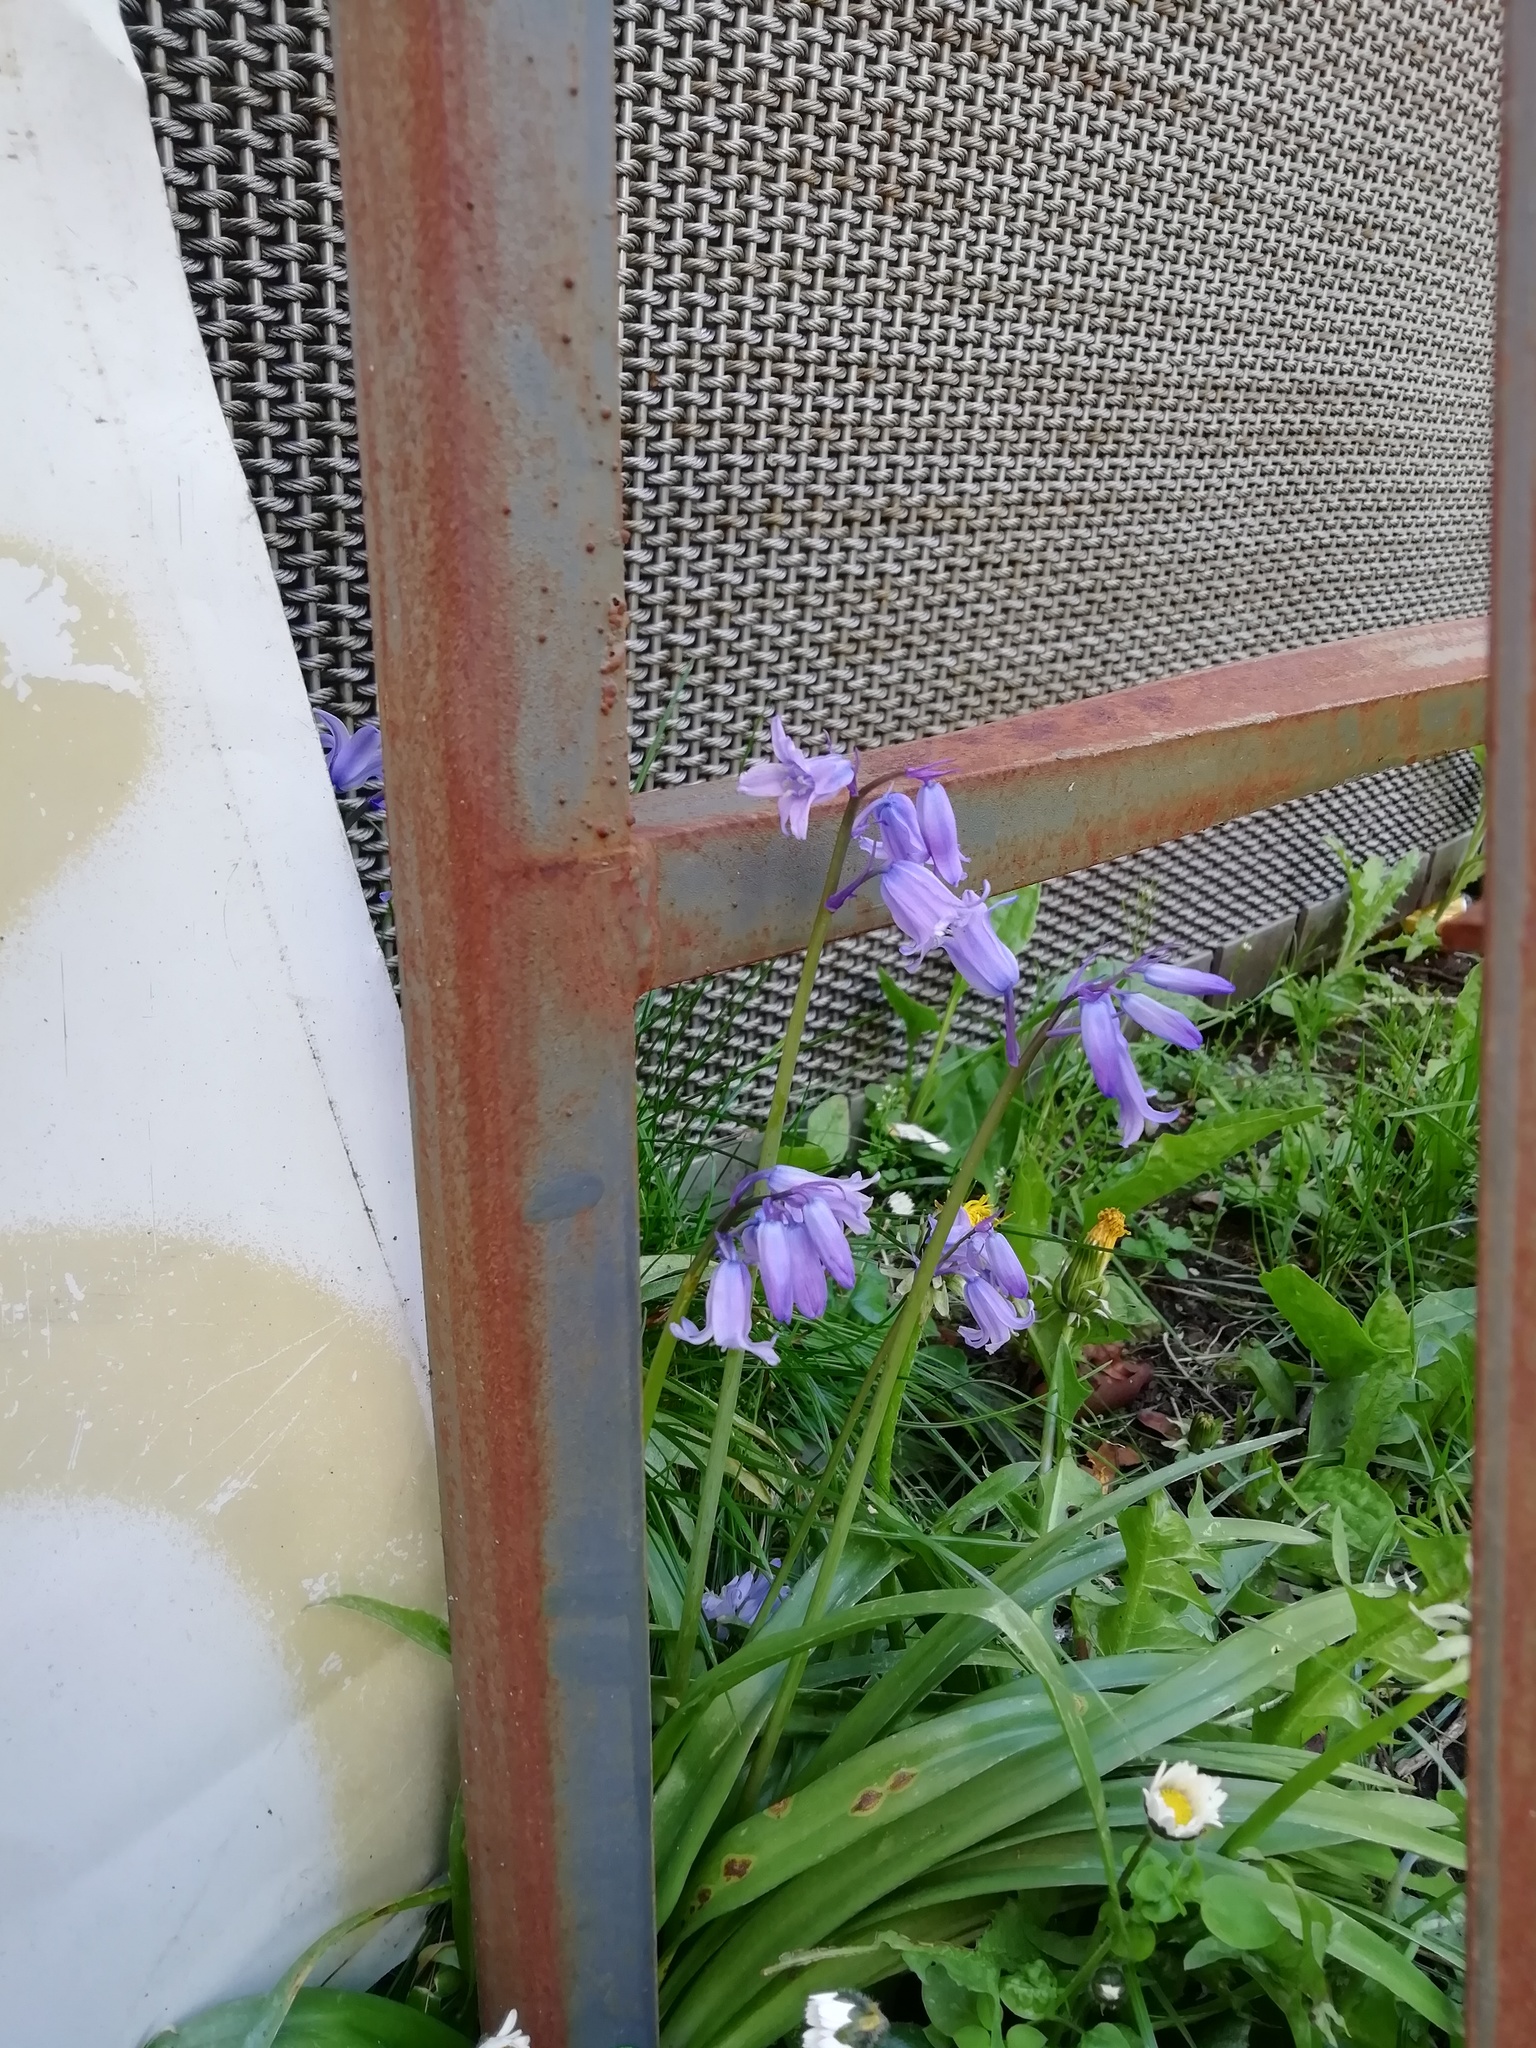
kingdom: Plantae
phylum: Tracheophyta
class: Liliopsida
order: Asparagales
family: Asparagaceae
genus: Hyacinthoides
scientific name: Hyacinthoides massartiana
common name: Hyacinthoides
